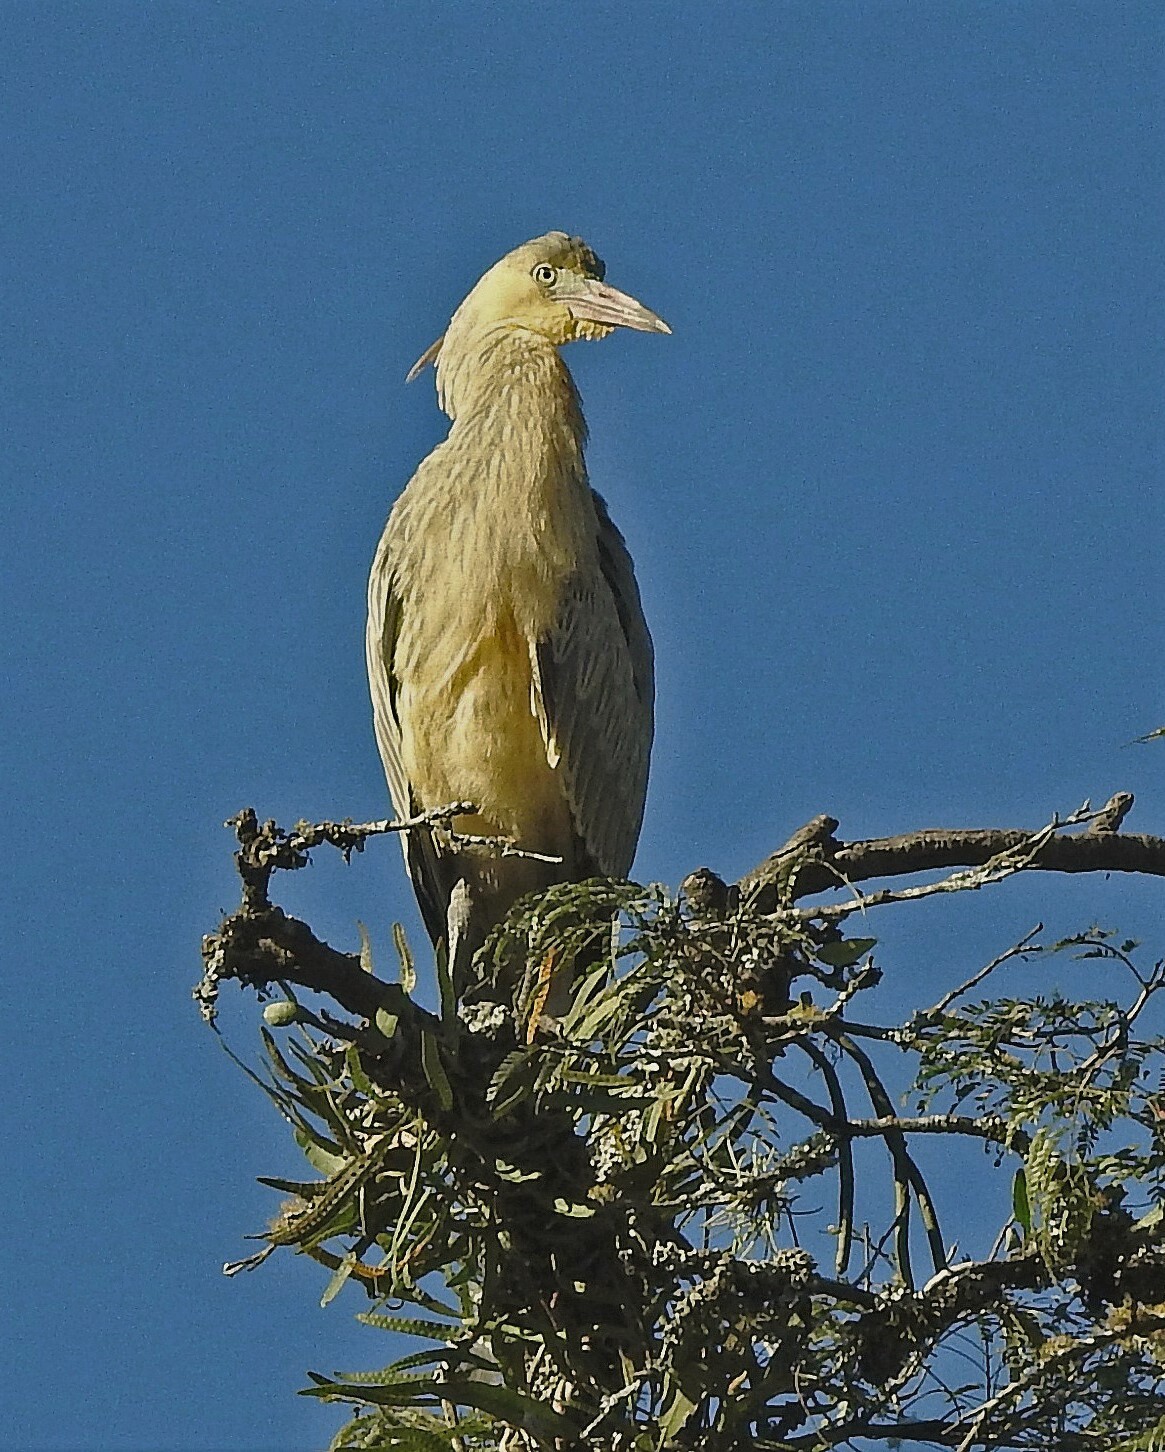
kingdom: Animalia
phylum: Chordata
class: Aves
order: Pelecaniformes
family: Ardeidae
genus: Syrigma
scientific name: Syrigma sibilatrix
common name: Whistling heron
